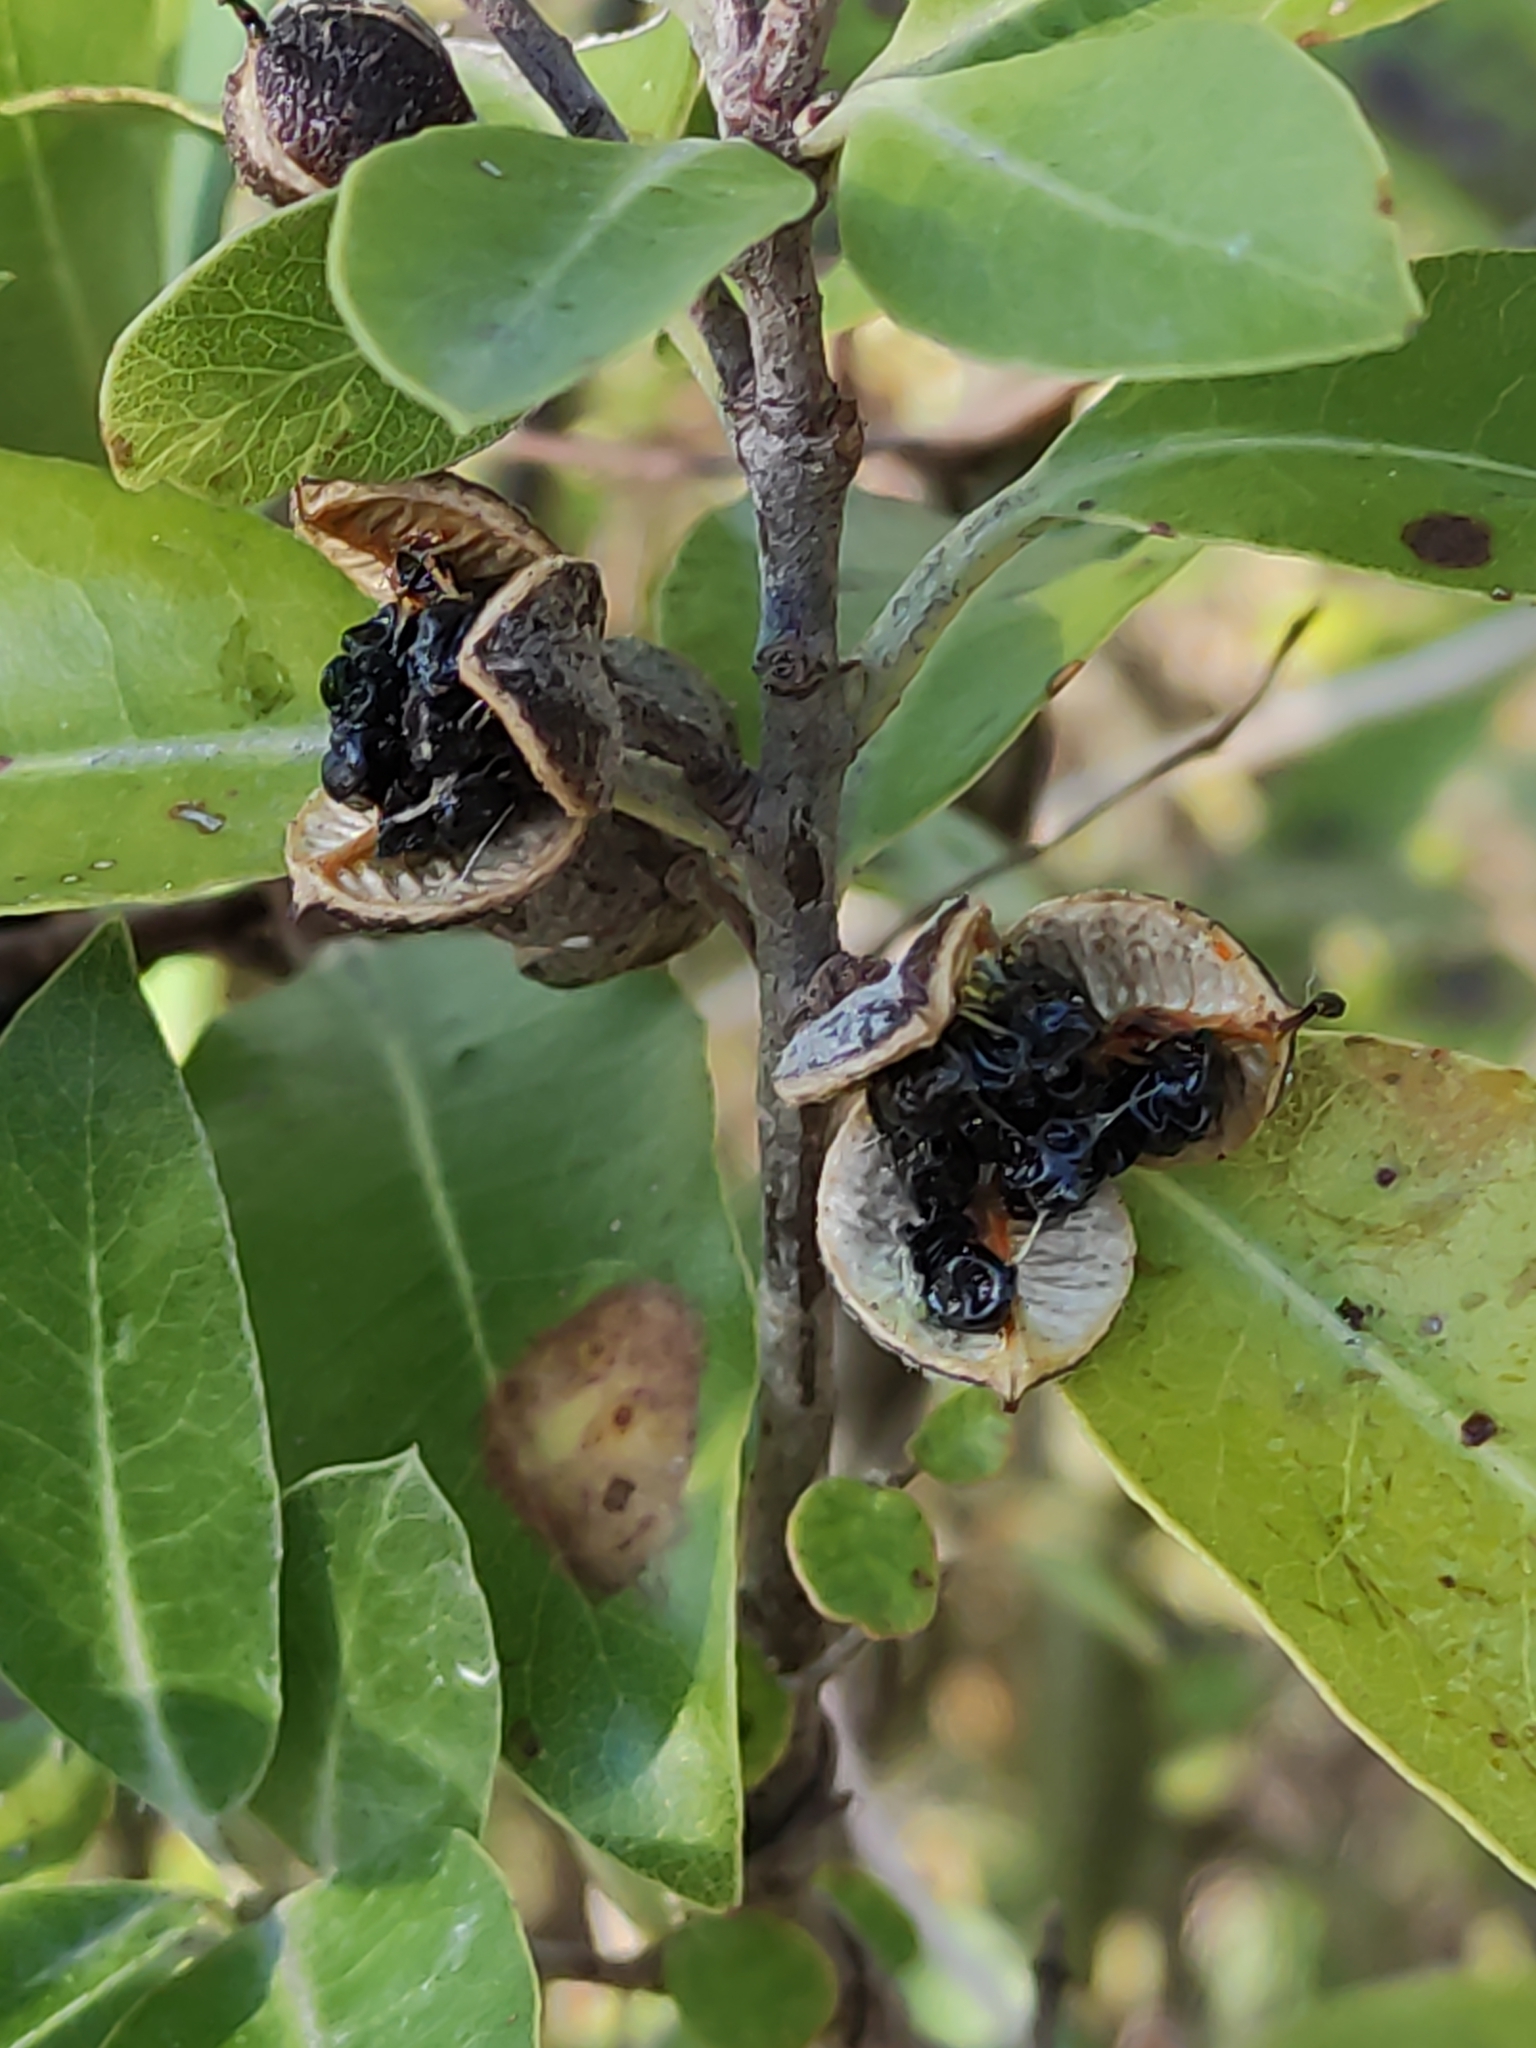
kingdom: Plantae
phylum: Tracheophyta
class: Magnoliopsida
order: Apiales
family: Pittosporaceae
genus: Pittosporum
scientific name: Pittosporum crassifolium
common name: Karo
